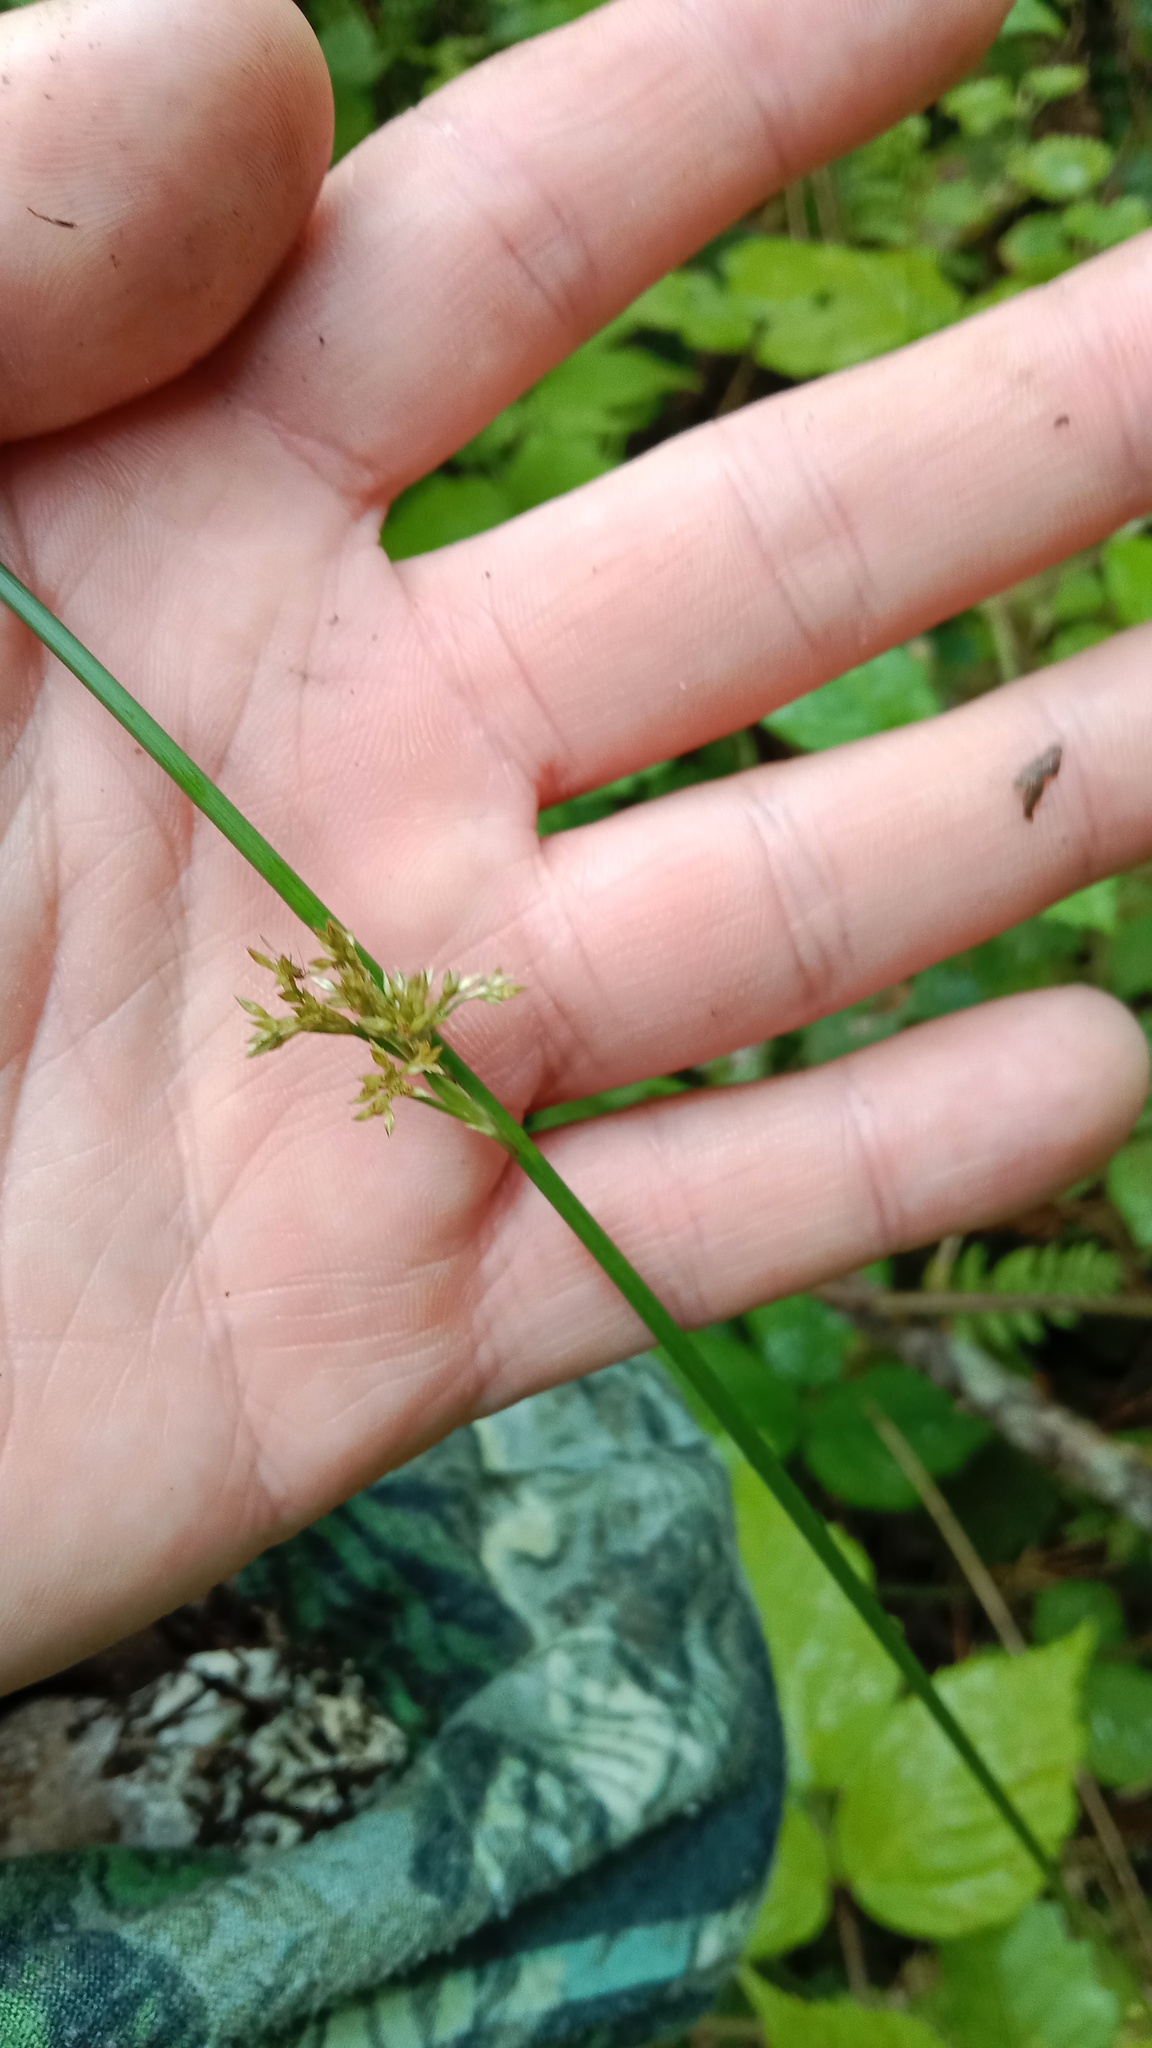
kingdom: Plantae
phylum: Tracheophyta
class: Liliopsida
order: Poales
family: Juncaceae
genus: Juncus
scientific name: Juncus effusus
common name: Soft rush
